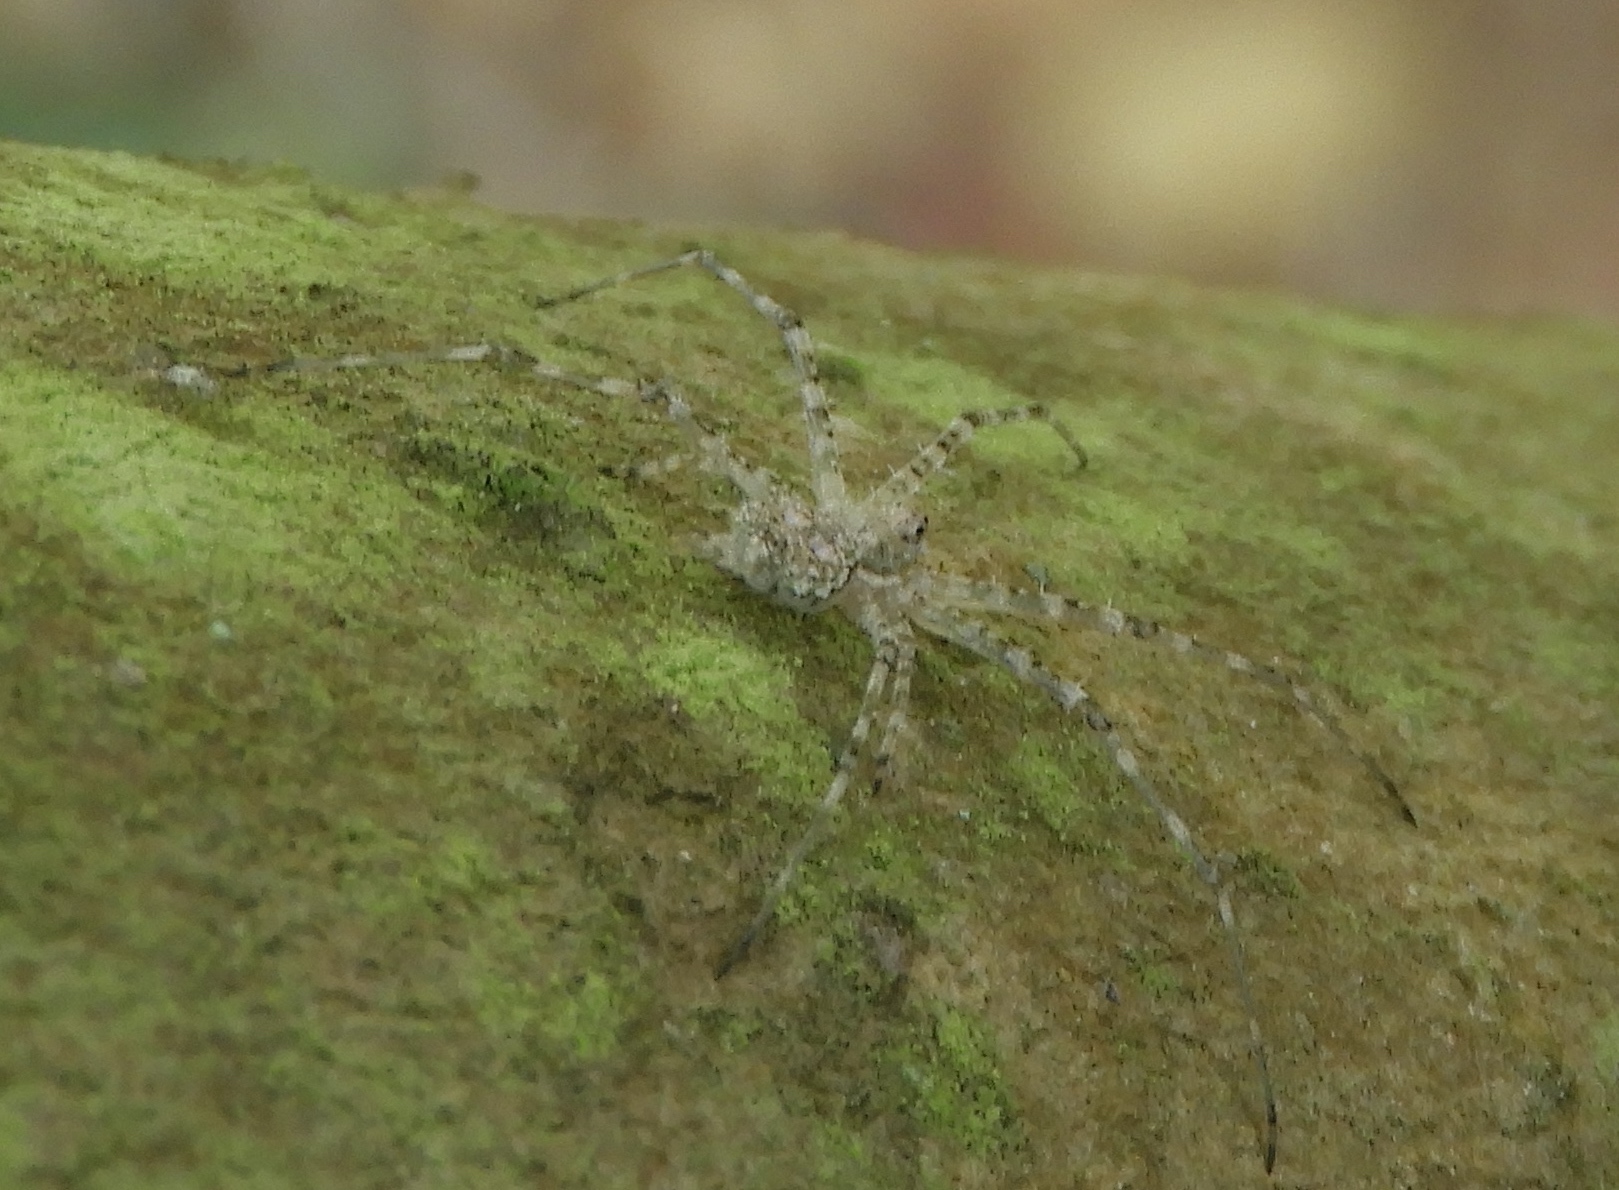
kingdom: Animalia
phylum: Arthropoda
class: Arachnida
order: Araneae
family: Hersiliidae
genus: Neotama
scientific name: Neotama mexicana
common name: Tree trunk spiders
